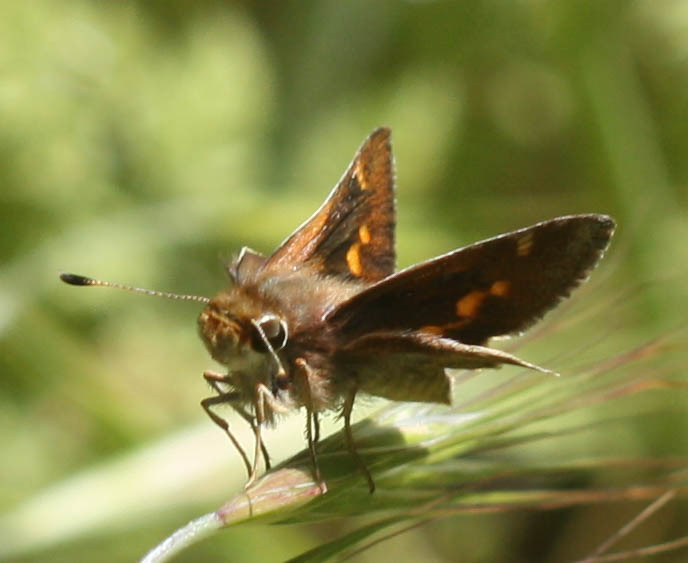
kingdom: Animalia
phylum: Arthropoda
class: Insecta
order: Lepidoptera
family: Hesperiidae
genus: Lon
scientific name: Lon melane
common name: Umber skipper
